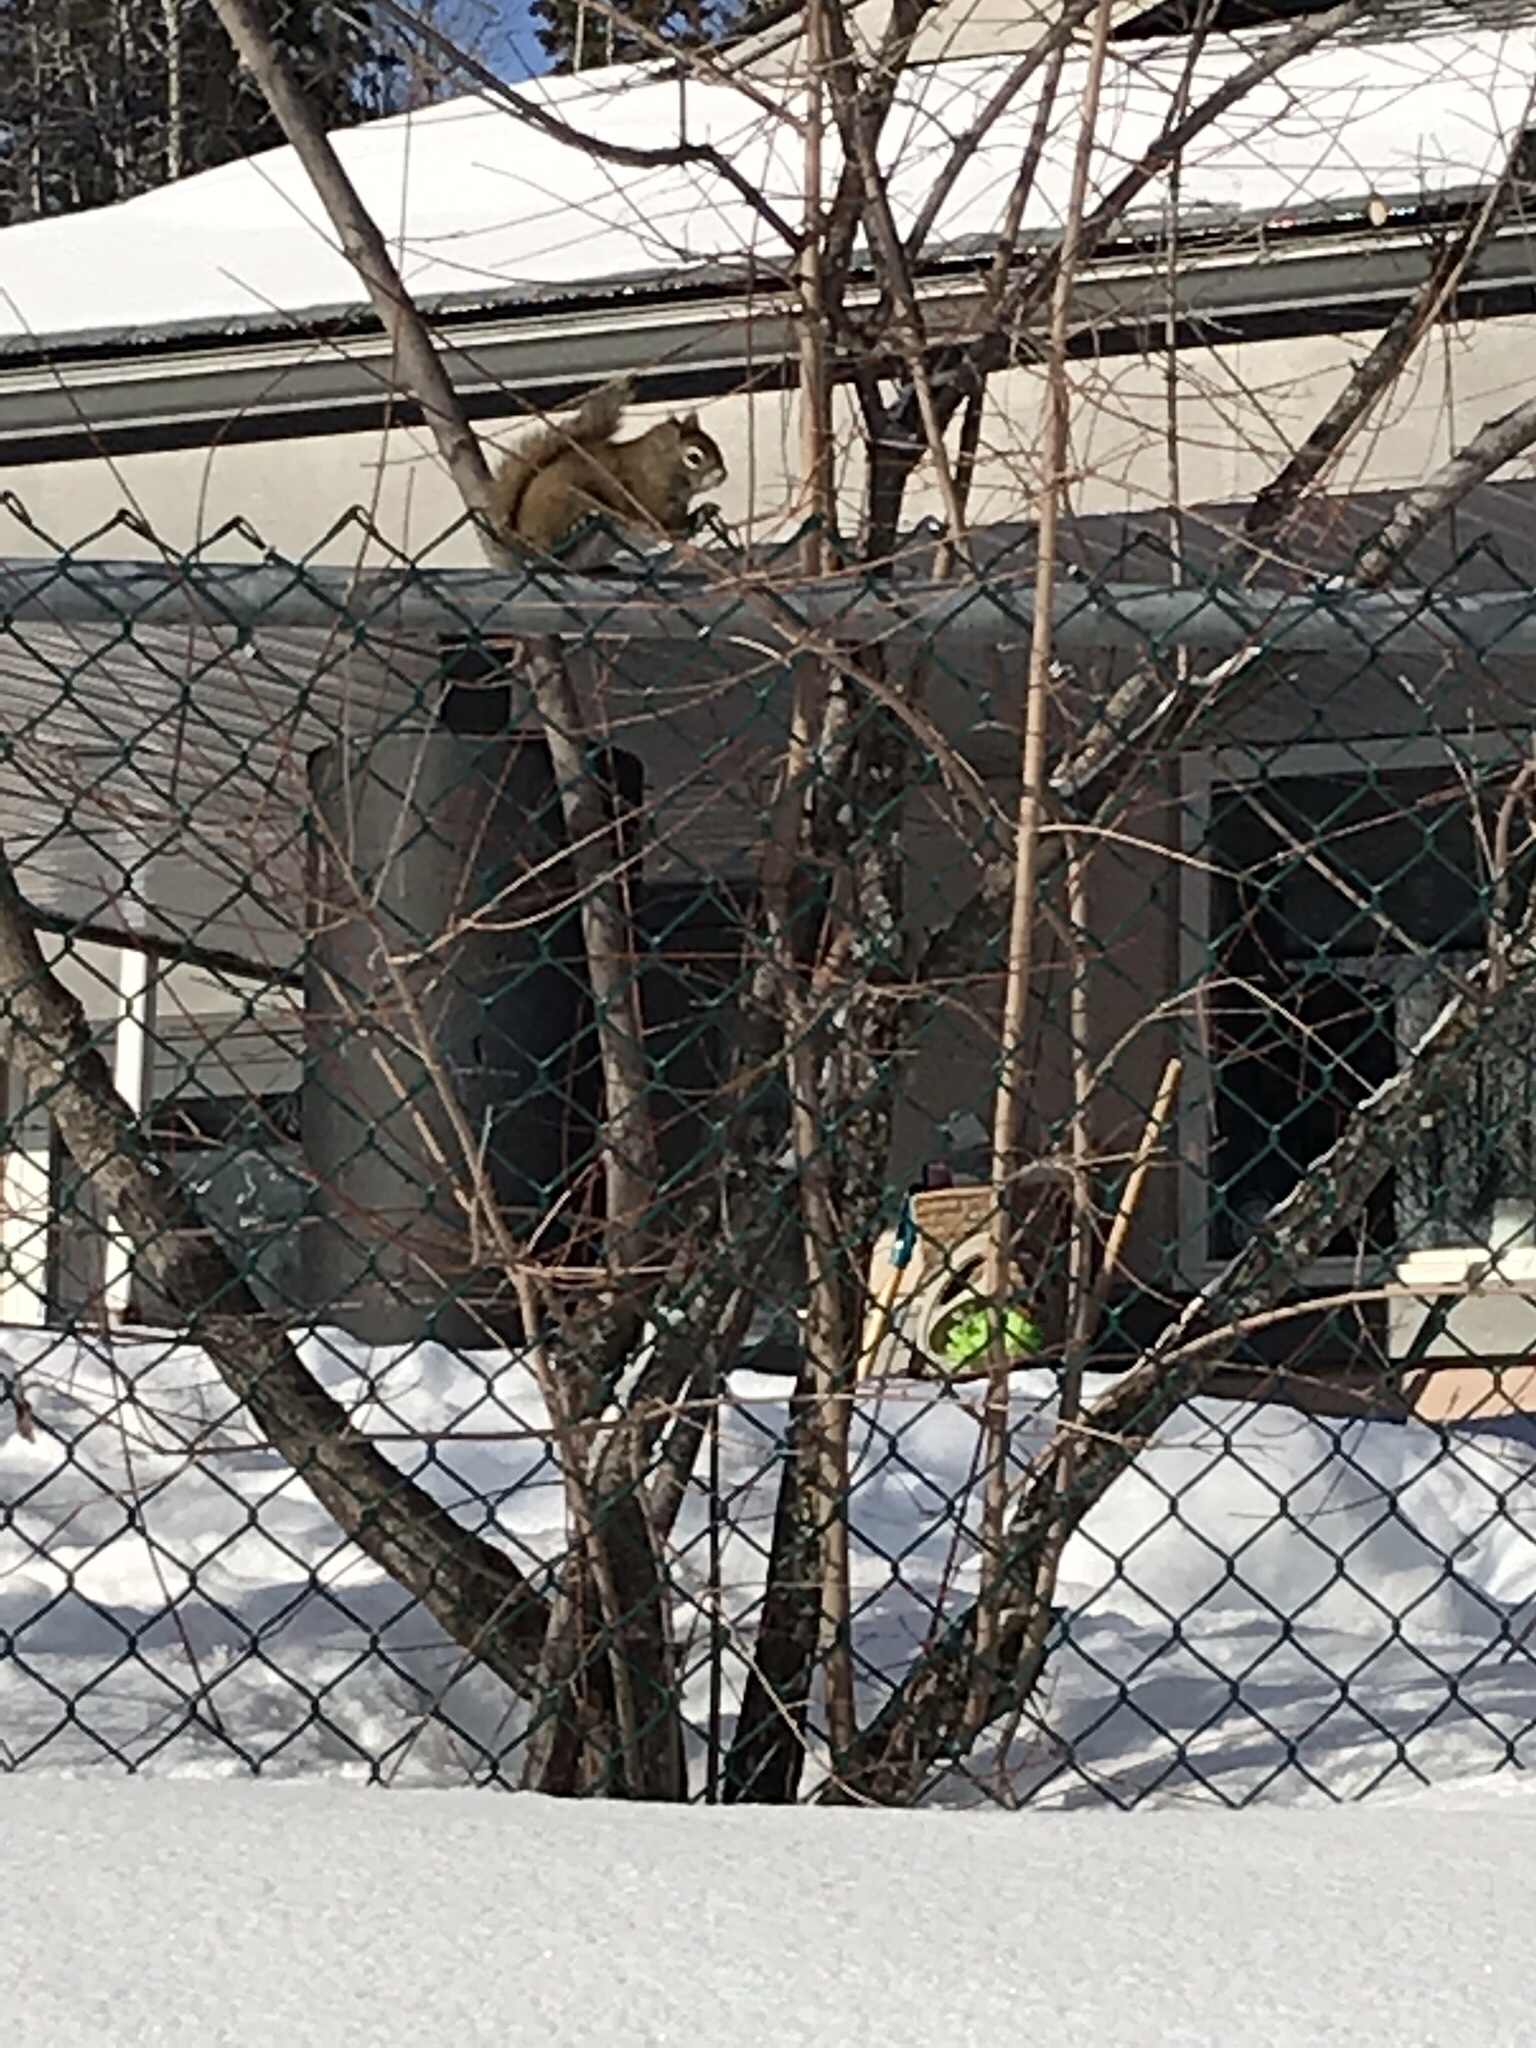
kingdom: Animalia
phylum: Chordata
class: Mammalia
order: Rodentia
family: Sciuridae
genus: Tamiasciurus
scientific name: Tamiasciurus hudsonicus
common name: Red squirrel
